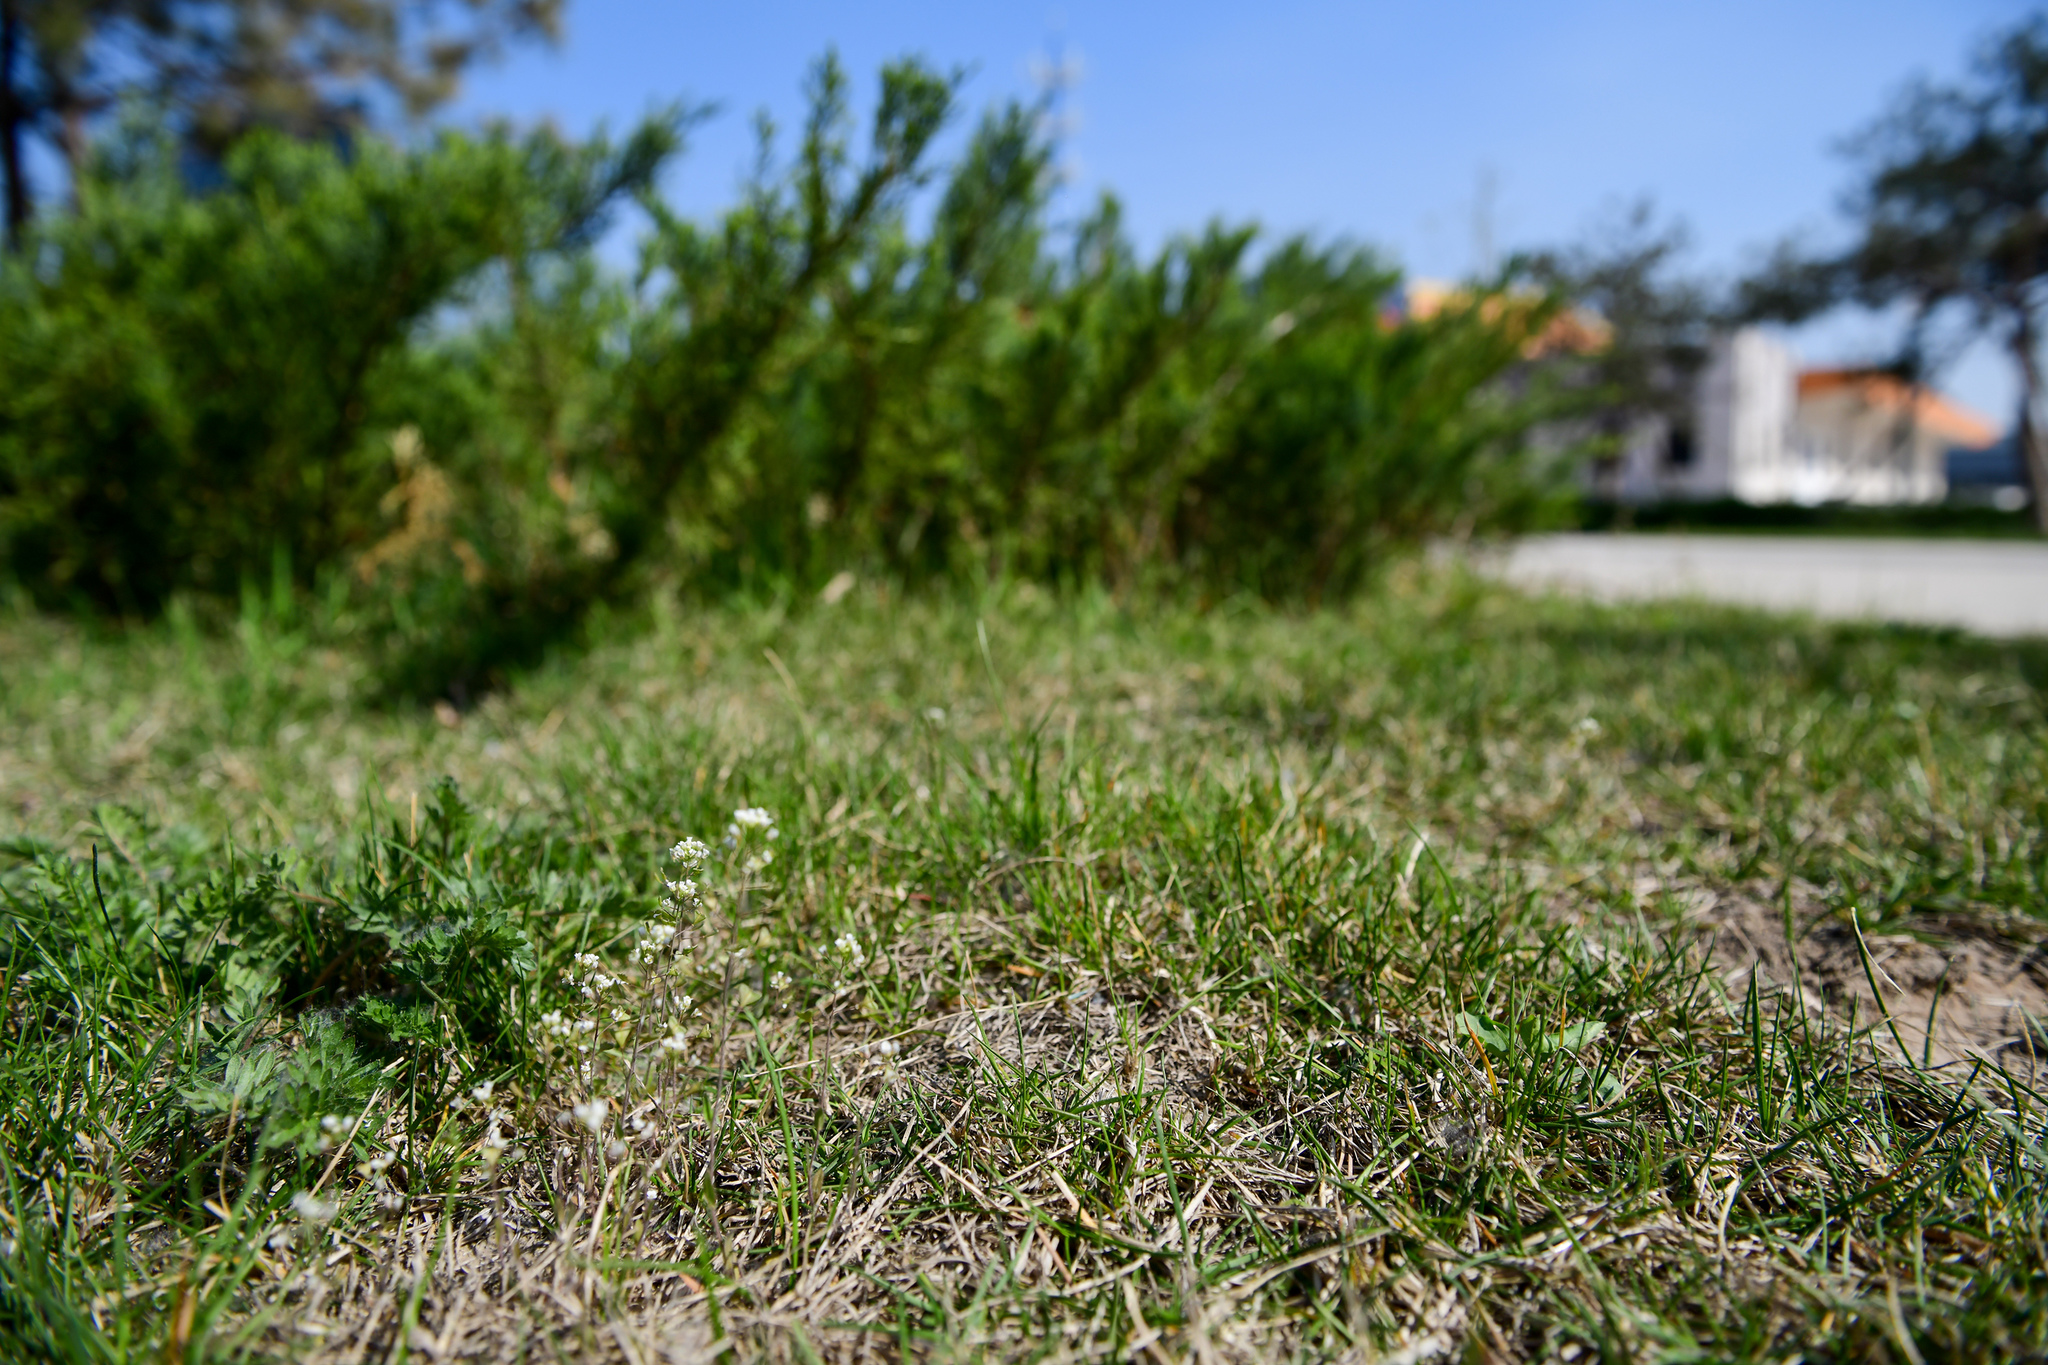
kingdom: Plantae
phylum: Tracheophyta
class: Magnoliopsida
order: Brassicales
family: Brassicaceae
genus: Capsella
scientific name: Capsella bursa-pastoris
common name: Shepherd's purse
